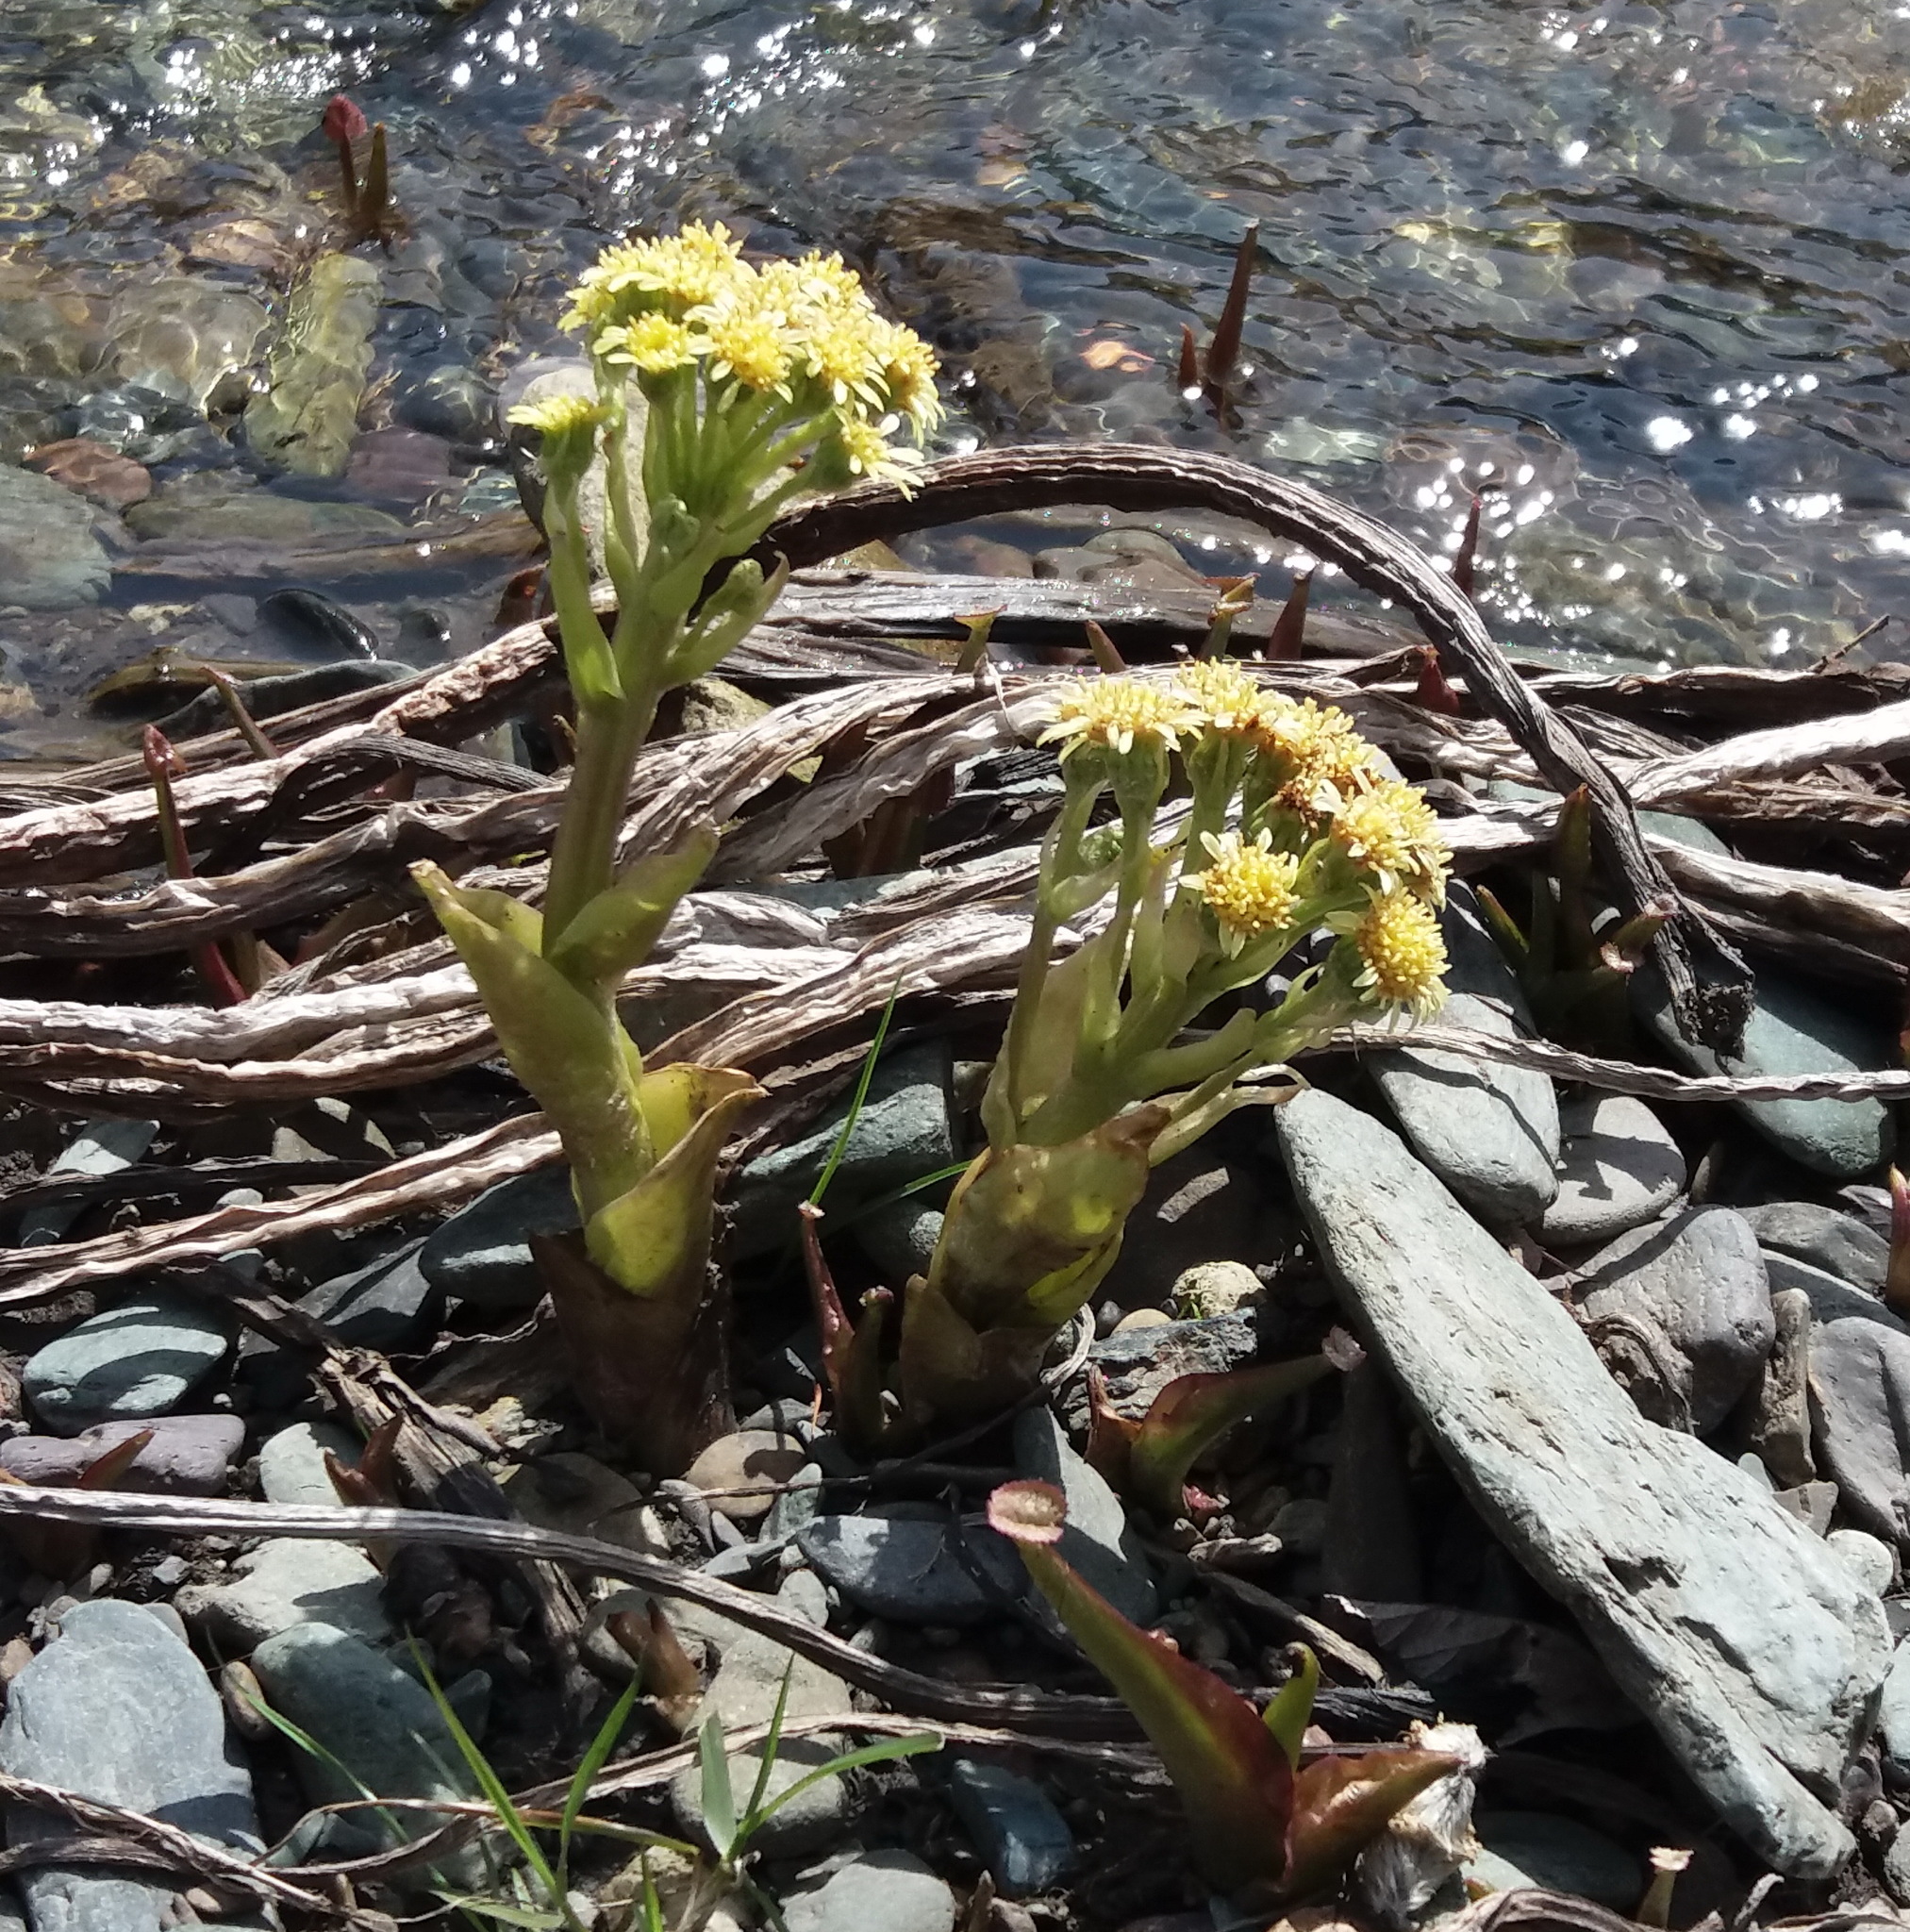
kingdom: Plantae
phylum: Tracheophyta
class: Magnoliopsida
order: Asterales
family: Asteraceae
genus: Petasites
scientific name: Petasites radiatus
